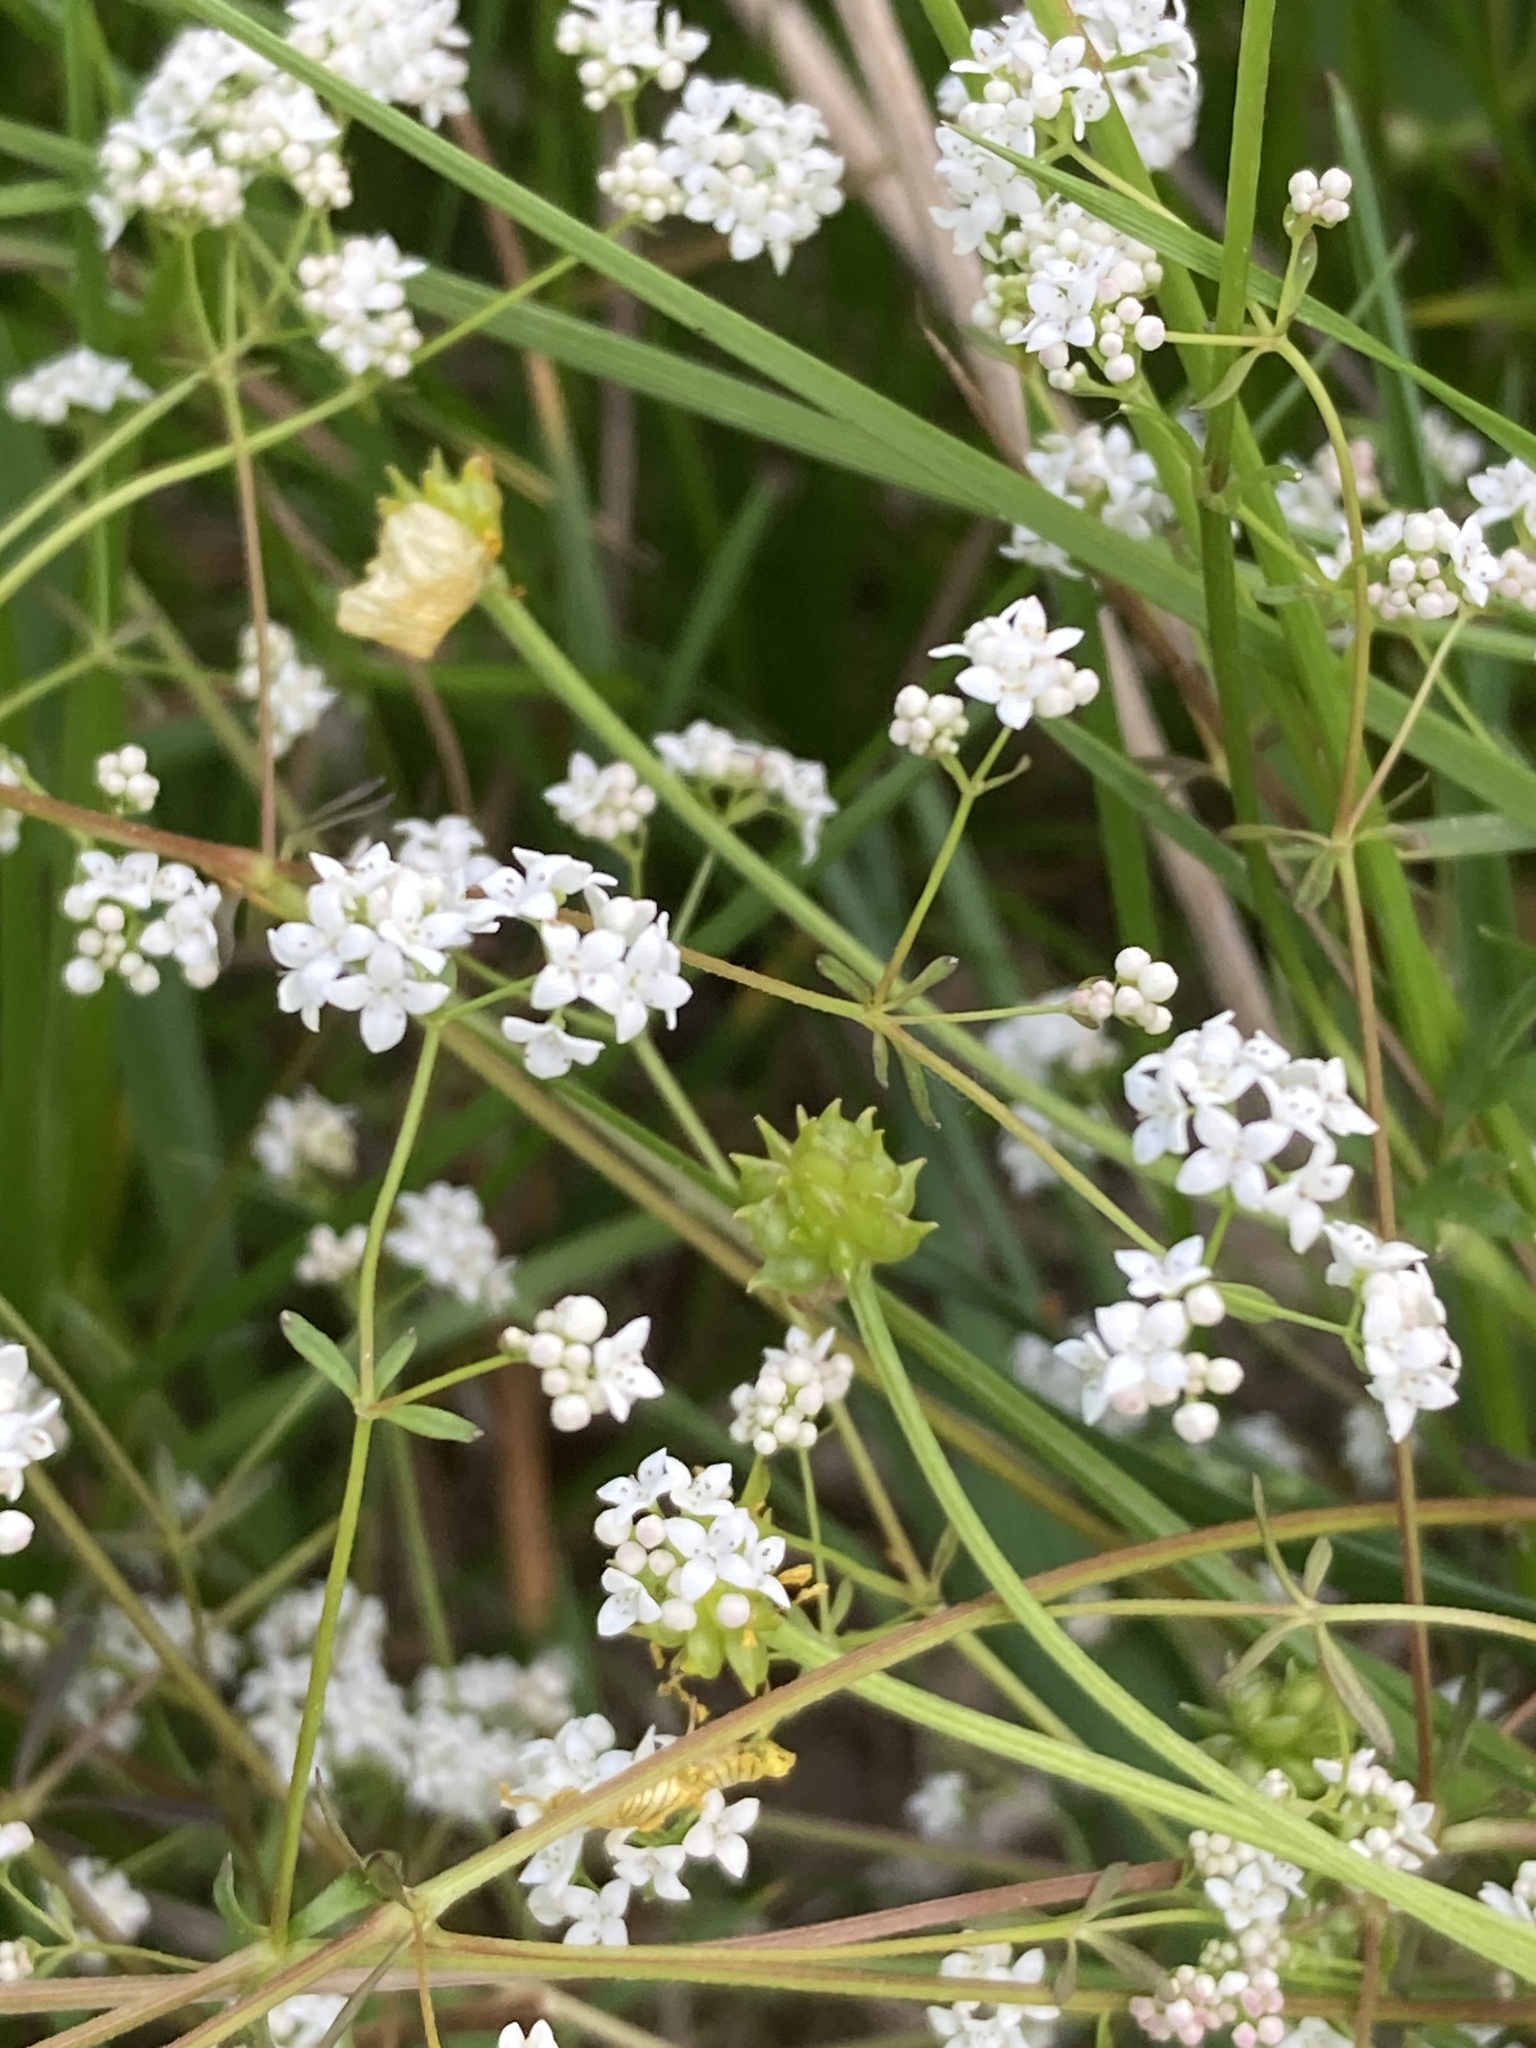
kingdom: Plantae
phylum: Tracheophyta
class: Magnoliopsida
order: Gentianales
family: Rubiaceae
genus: Galium
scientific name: Galium palustre
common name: Common marsh-bedstraw
